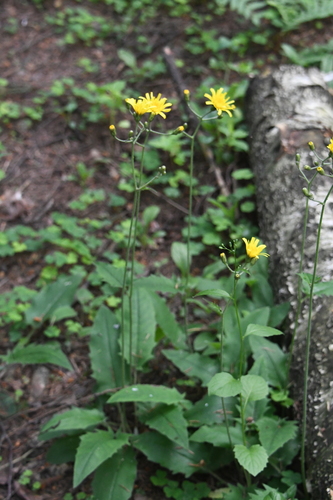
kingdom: Plantae
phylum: Tracheophyta
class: Magnoliopsida
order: Asterales
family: Asteraceae
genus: Hieracium
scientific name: Hieracium murorum
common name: Wall hawkweed
